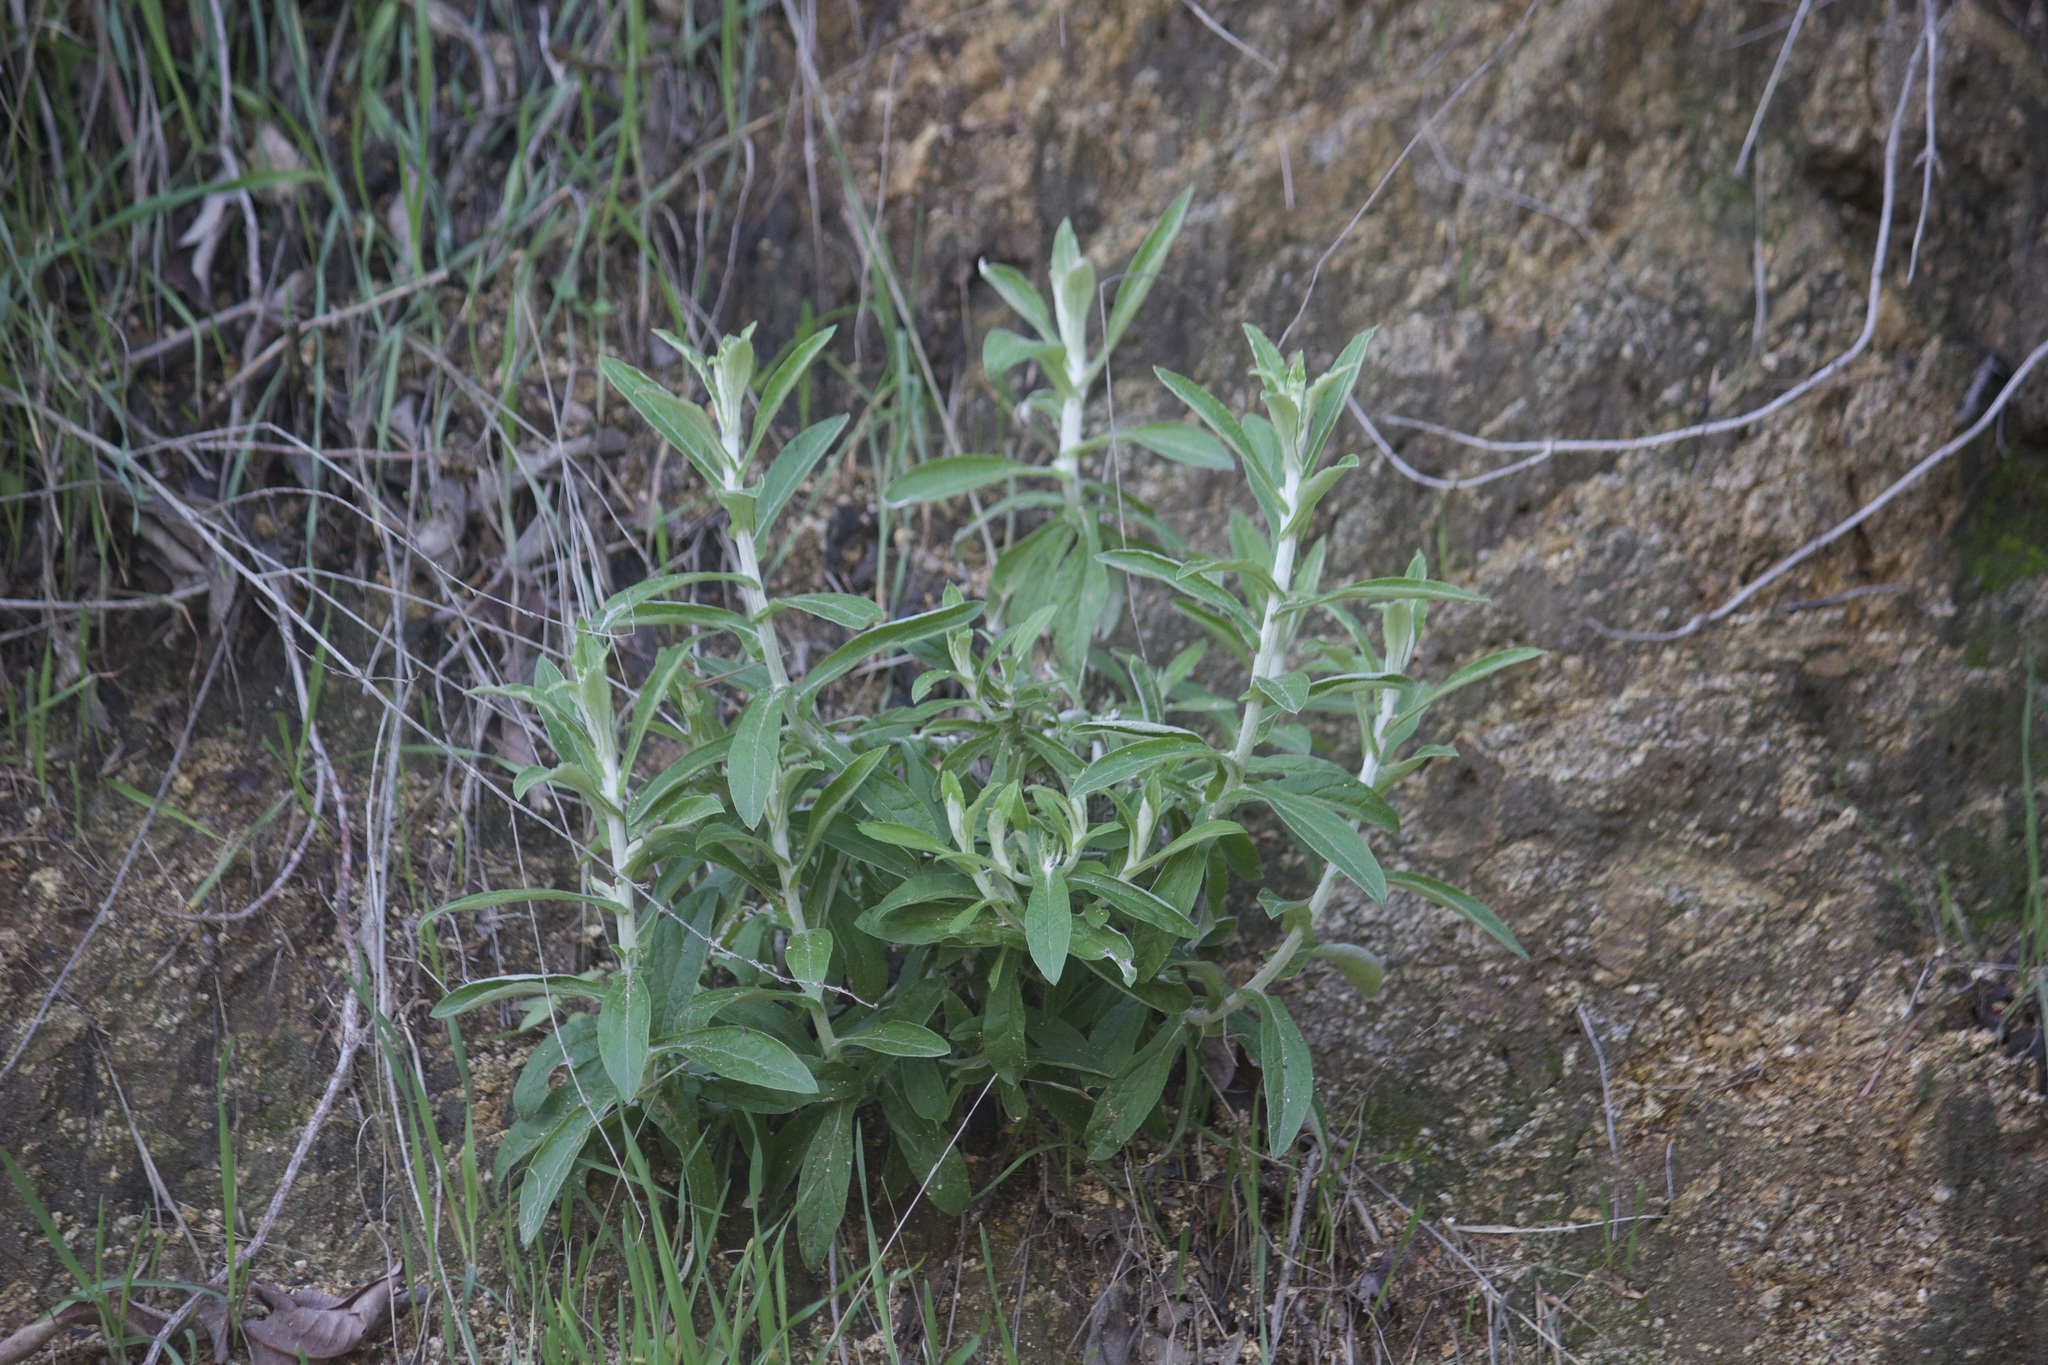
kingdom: Plantae
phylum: Tracheophyta
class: Magnoliopsida
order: Asterales
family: Asteraceae
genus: Pseudognaphalium
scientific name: Pseudognaphalium biolettii
